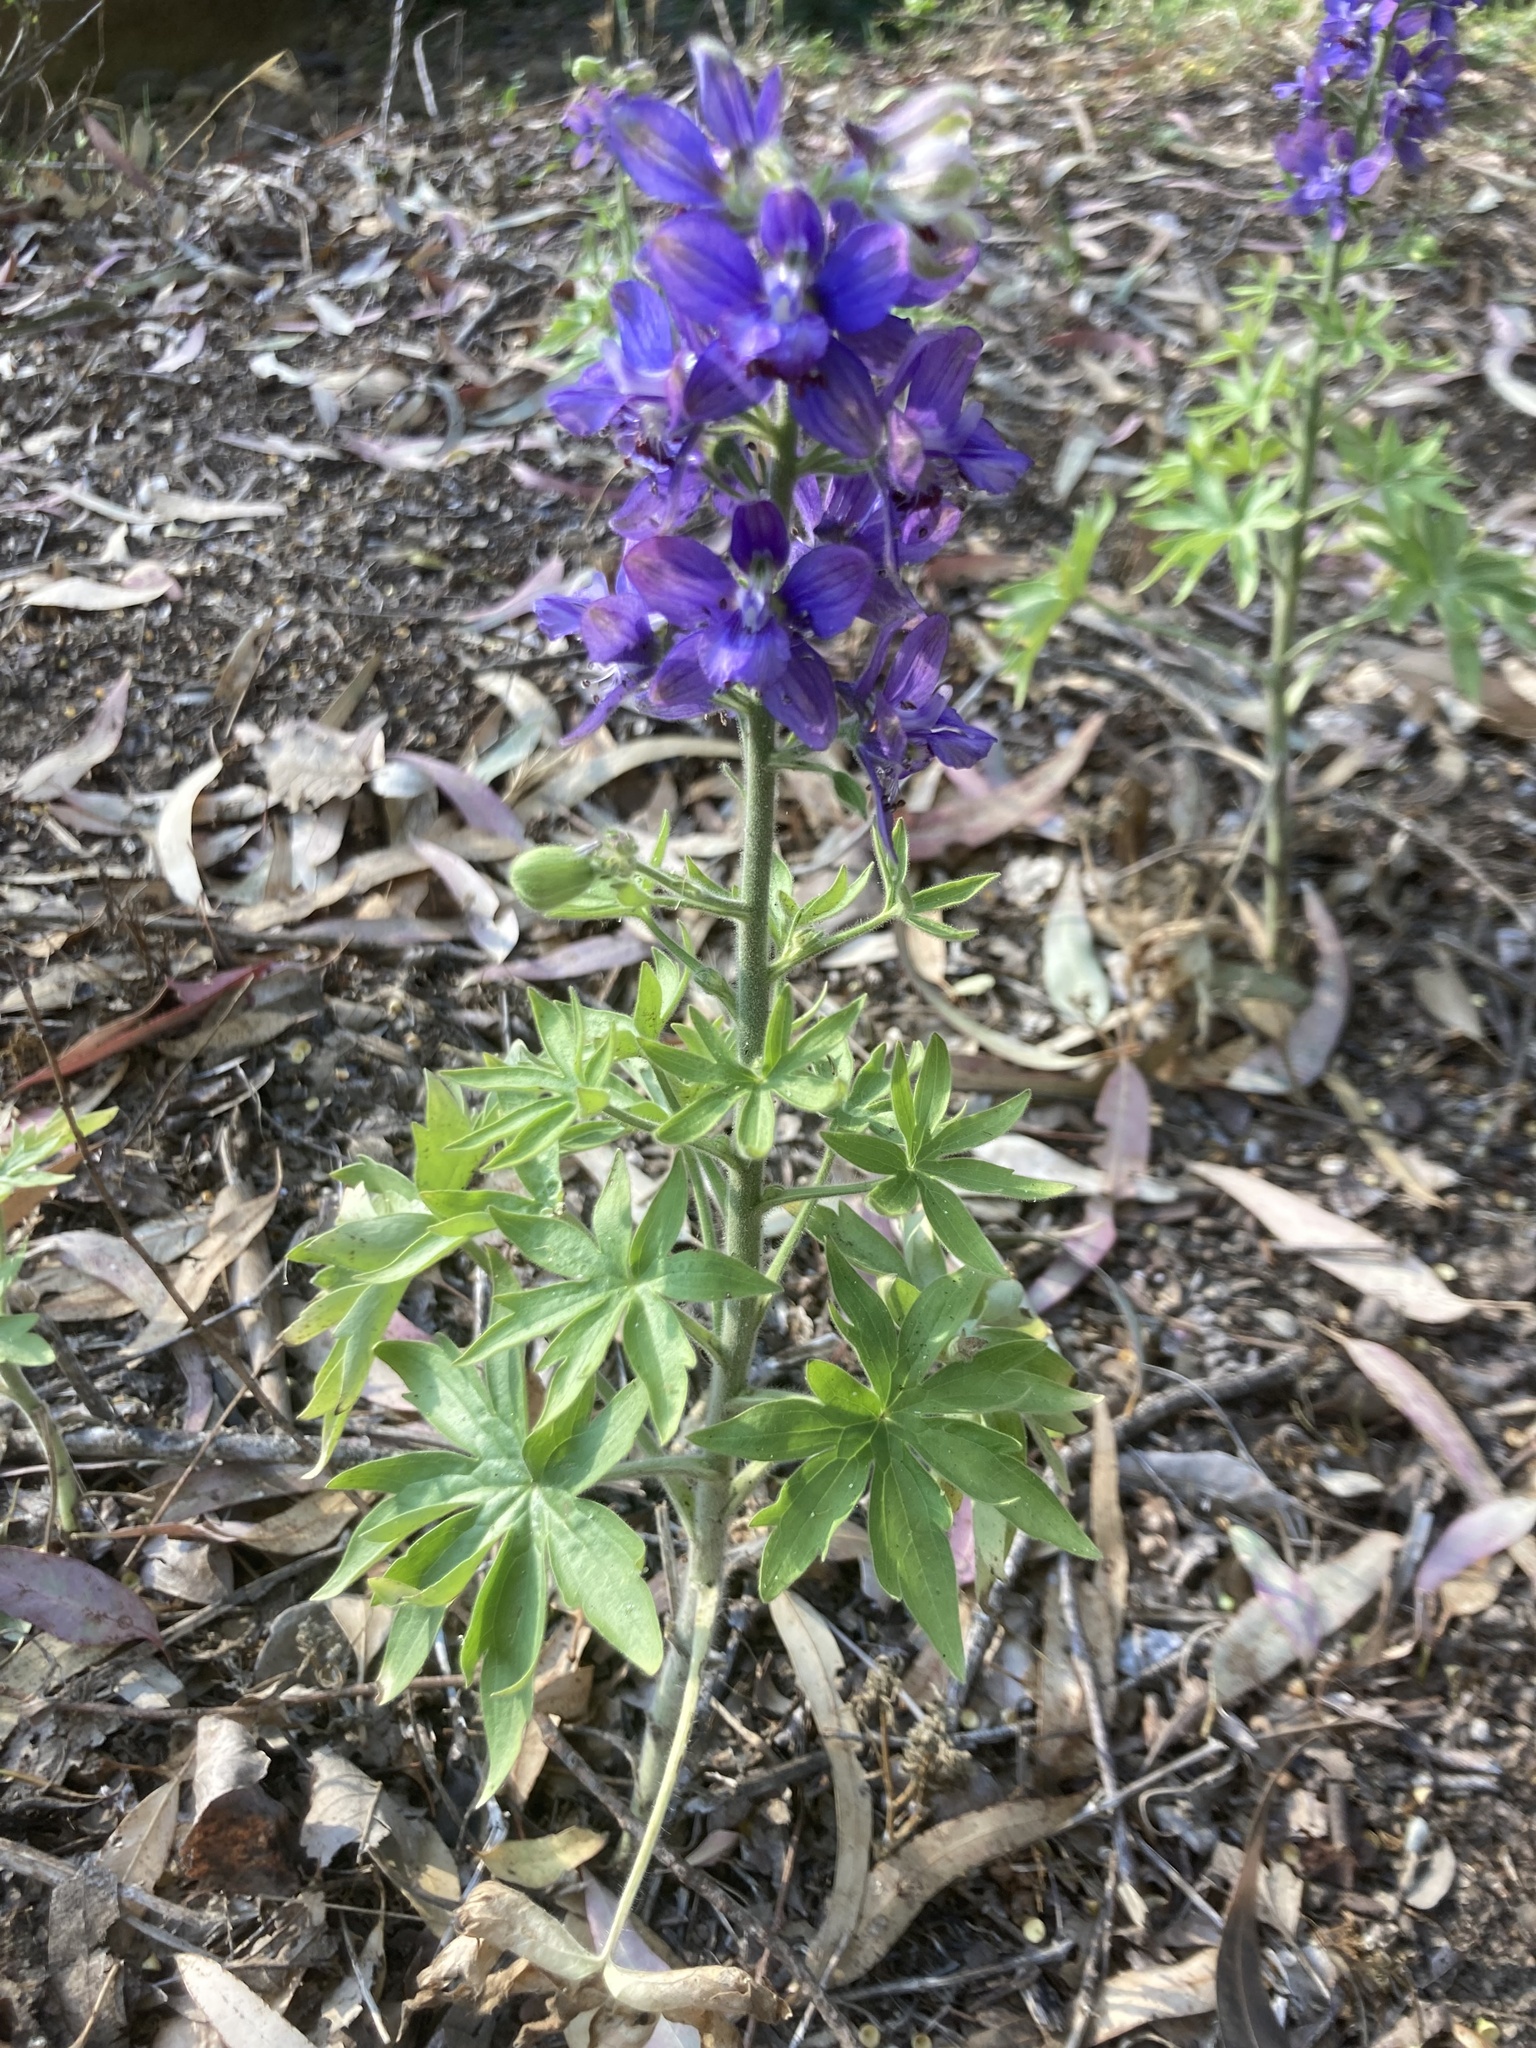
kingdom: Plantae
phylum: Tracheophyta
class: Magnoliopsida
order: Ranunculales
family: Ranunculaceae
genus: Staphisagria
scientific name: Staphisagria macrosperma
